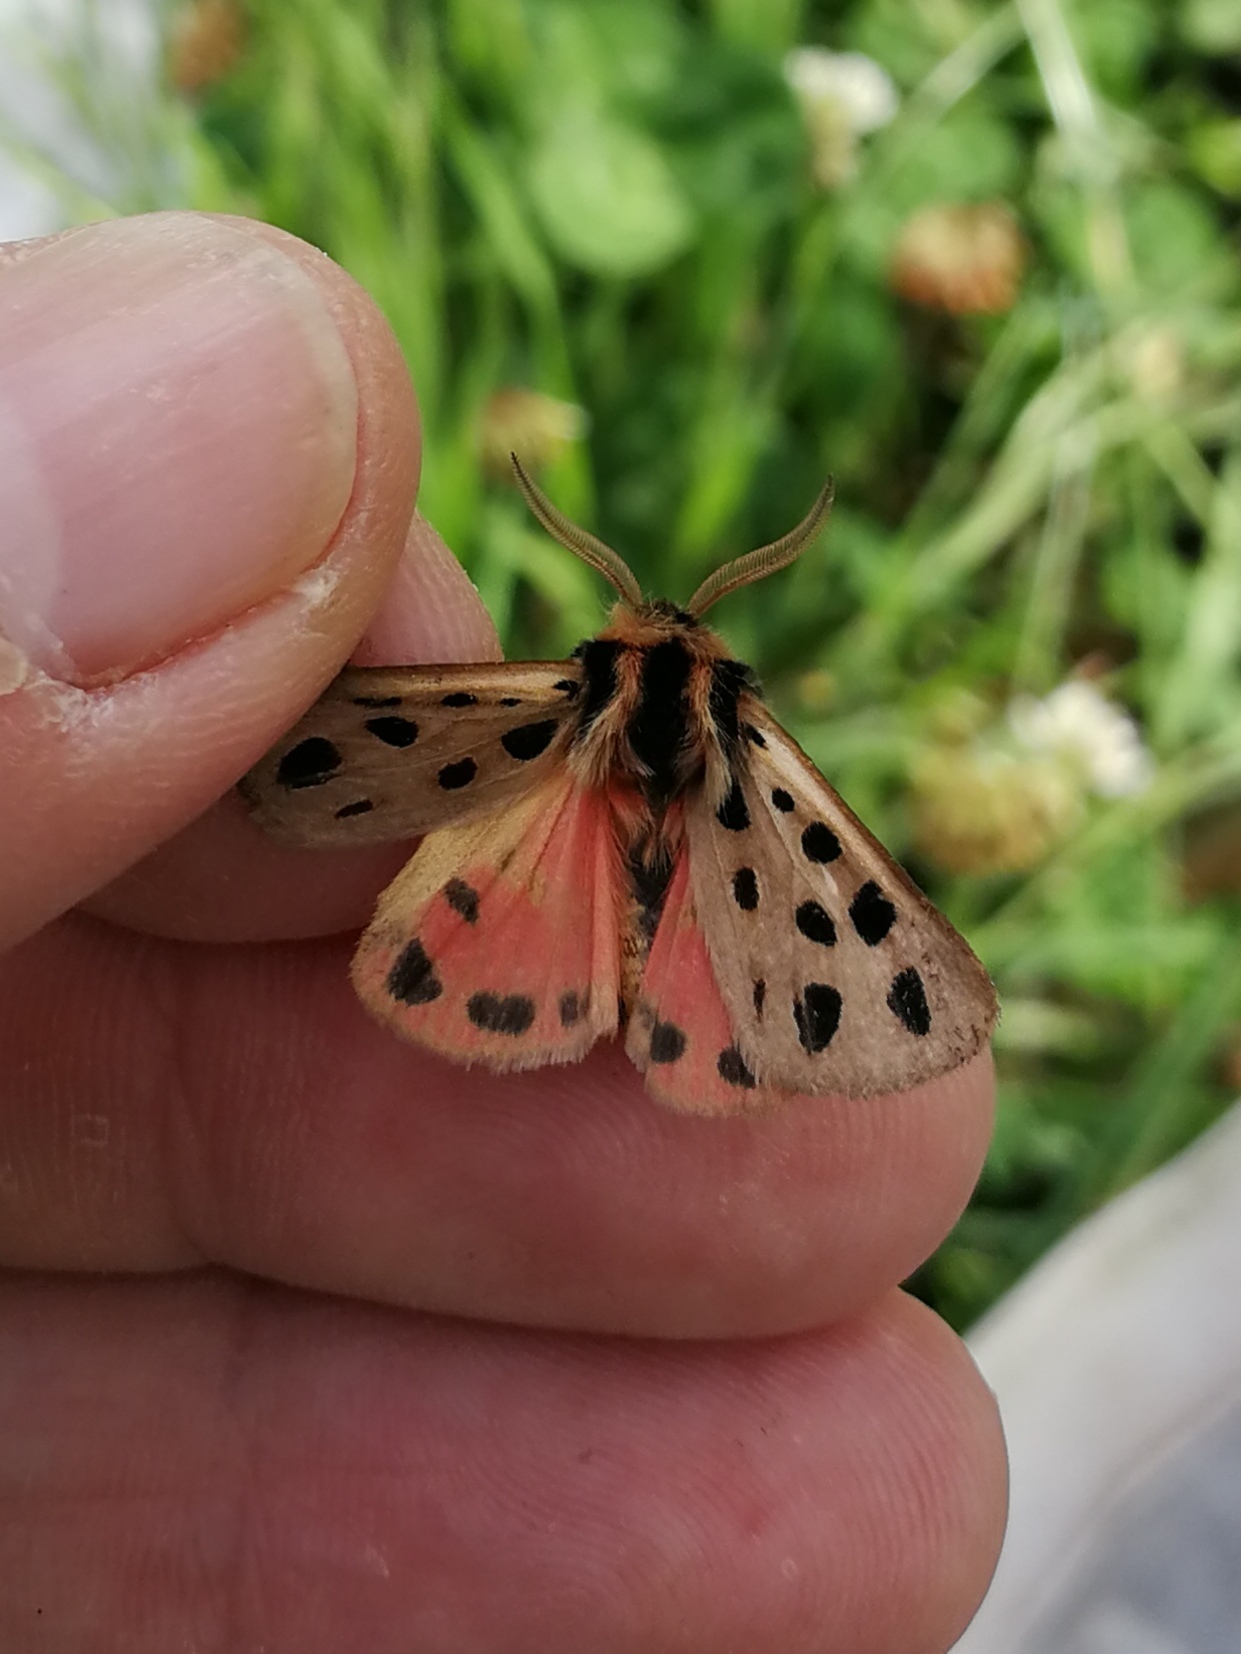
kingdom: Animalia
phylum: Arthropoda
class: Insecta
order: Lepidoptera
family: Erebidae
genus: Chelis
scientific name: Chelis maculosa
